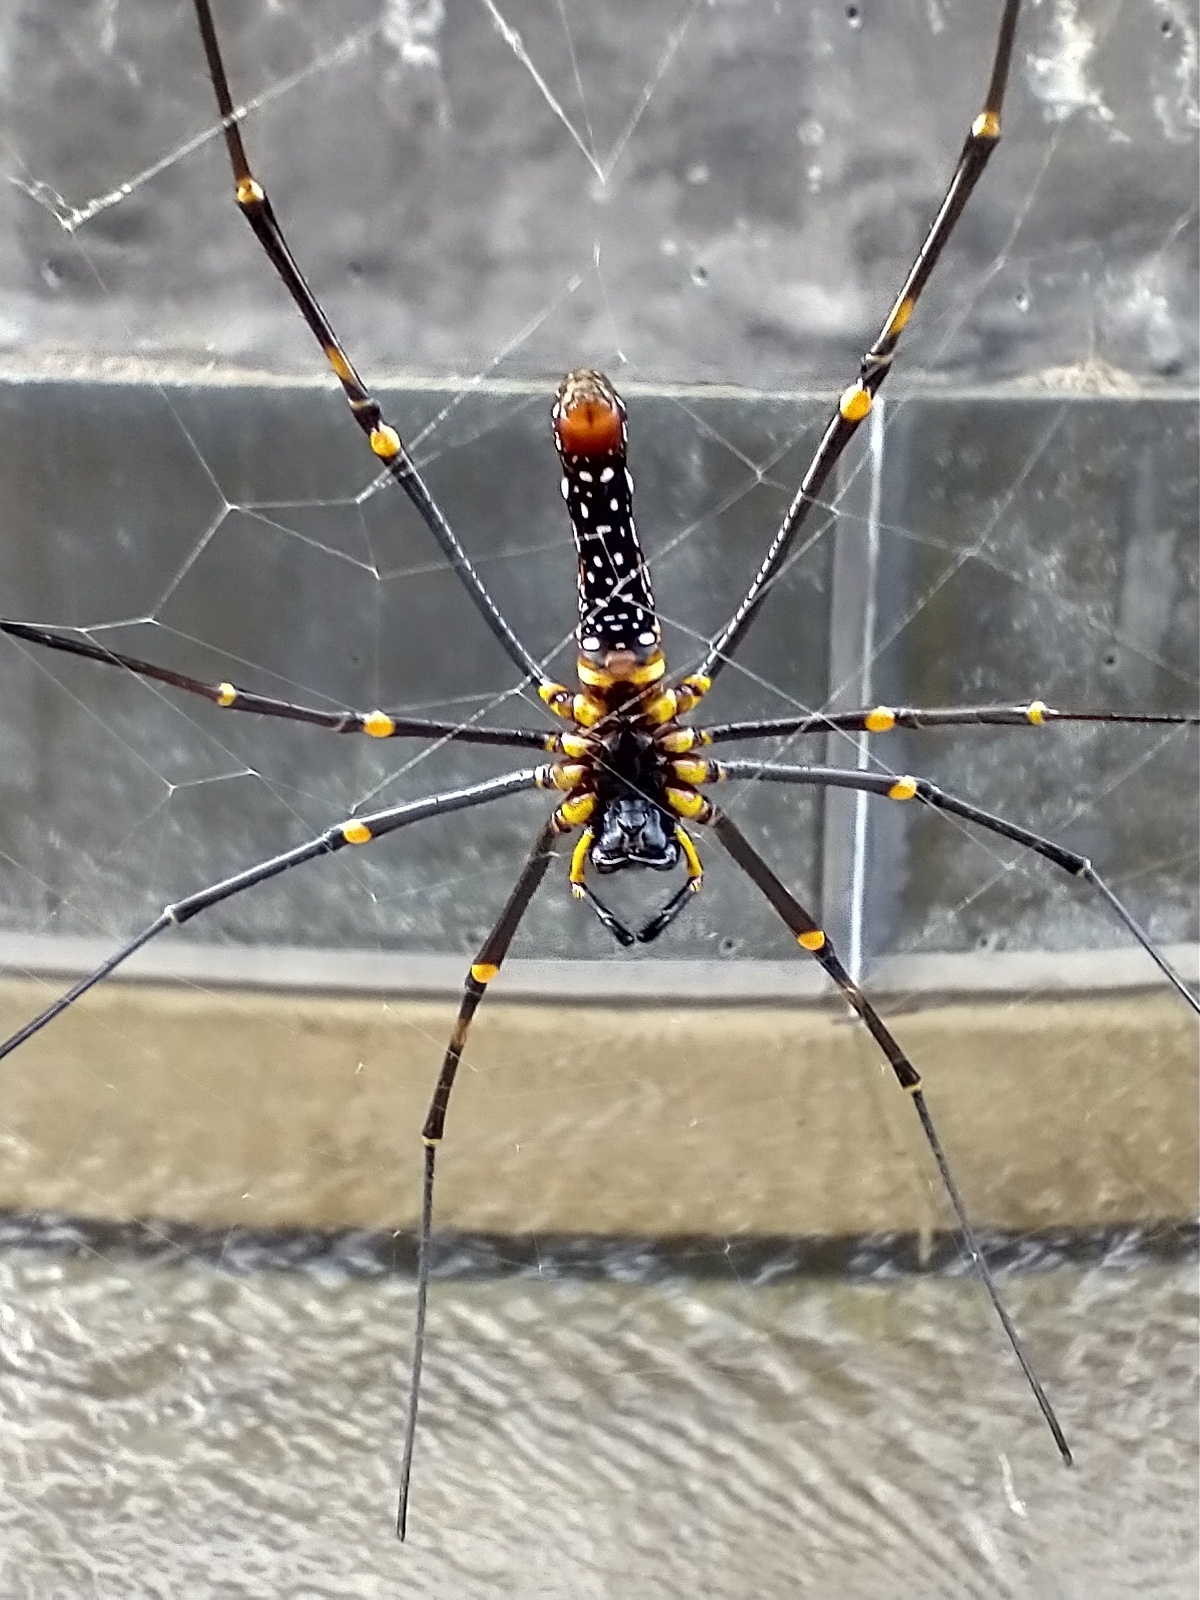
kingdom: Animalia
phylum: Arthropoda
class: Arachnida
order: Araneae
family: Araneidae
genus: Nephila
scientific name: Nephila pilipes
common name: Giant golden orb weaver
